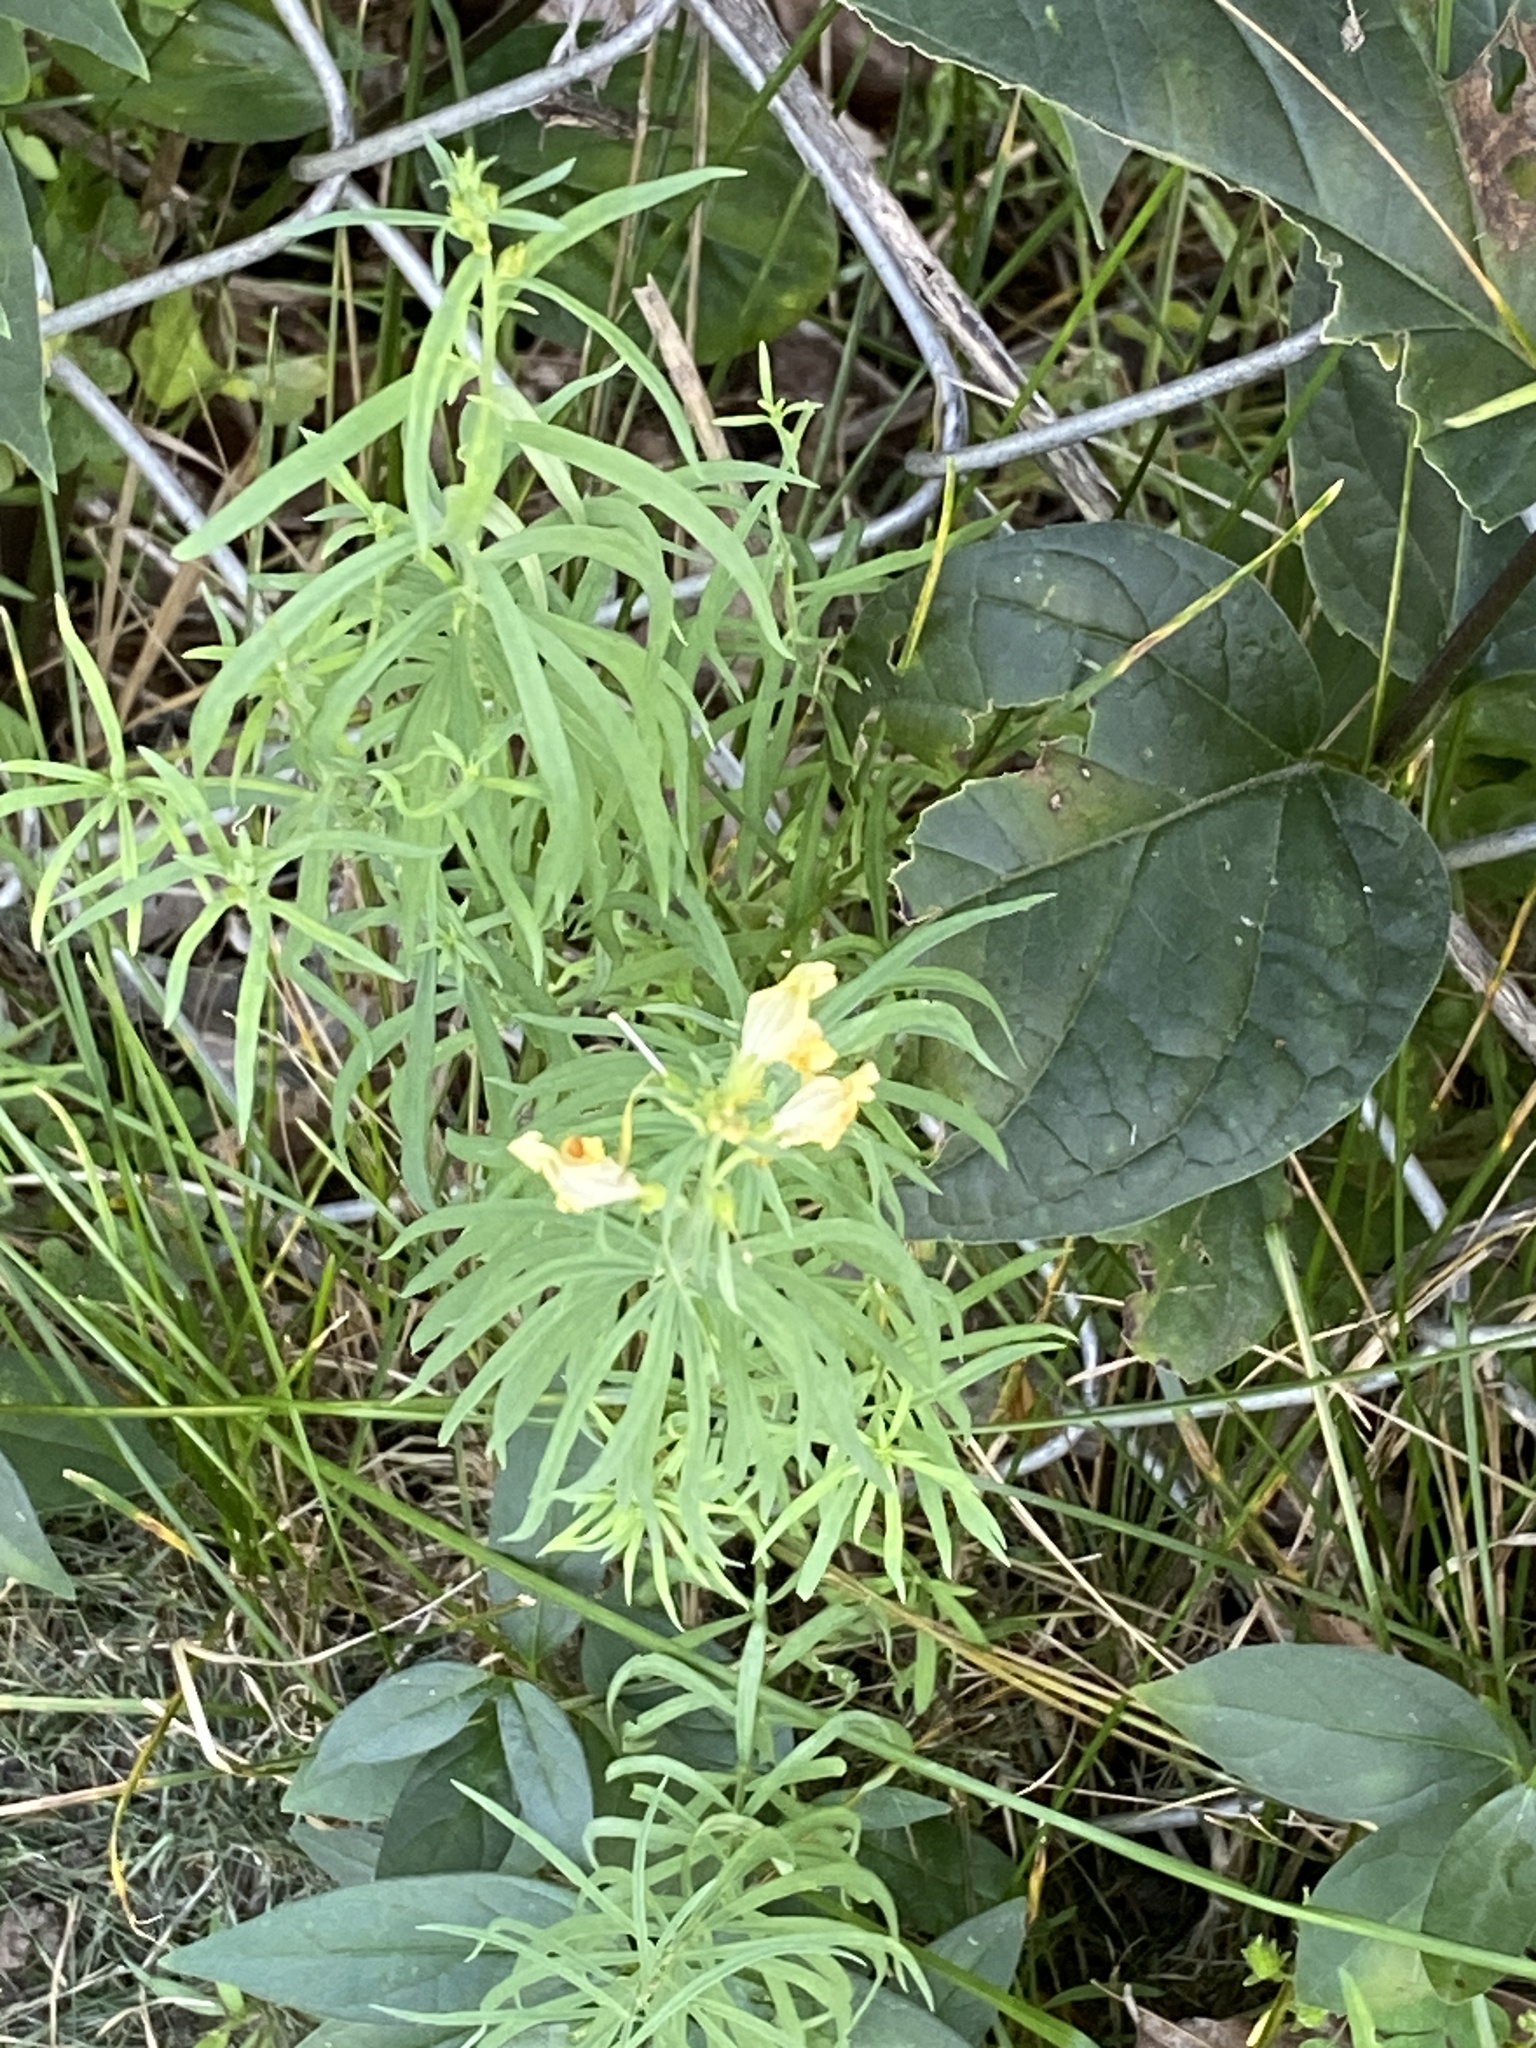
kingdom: Plantae
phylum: Tracheophyta
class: Magnoliopsida
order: Lamiales
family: Plantaginaceae
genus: Linaria
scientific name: Linaria vulgaris
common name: Butter and eggs
